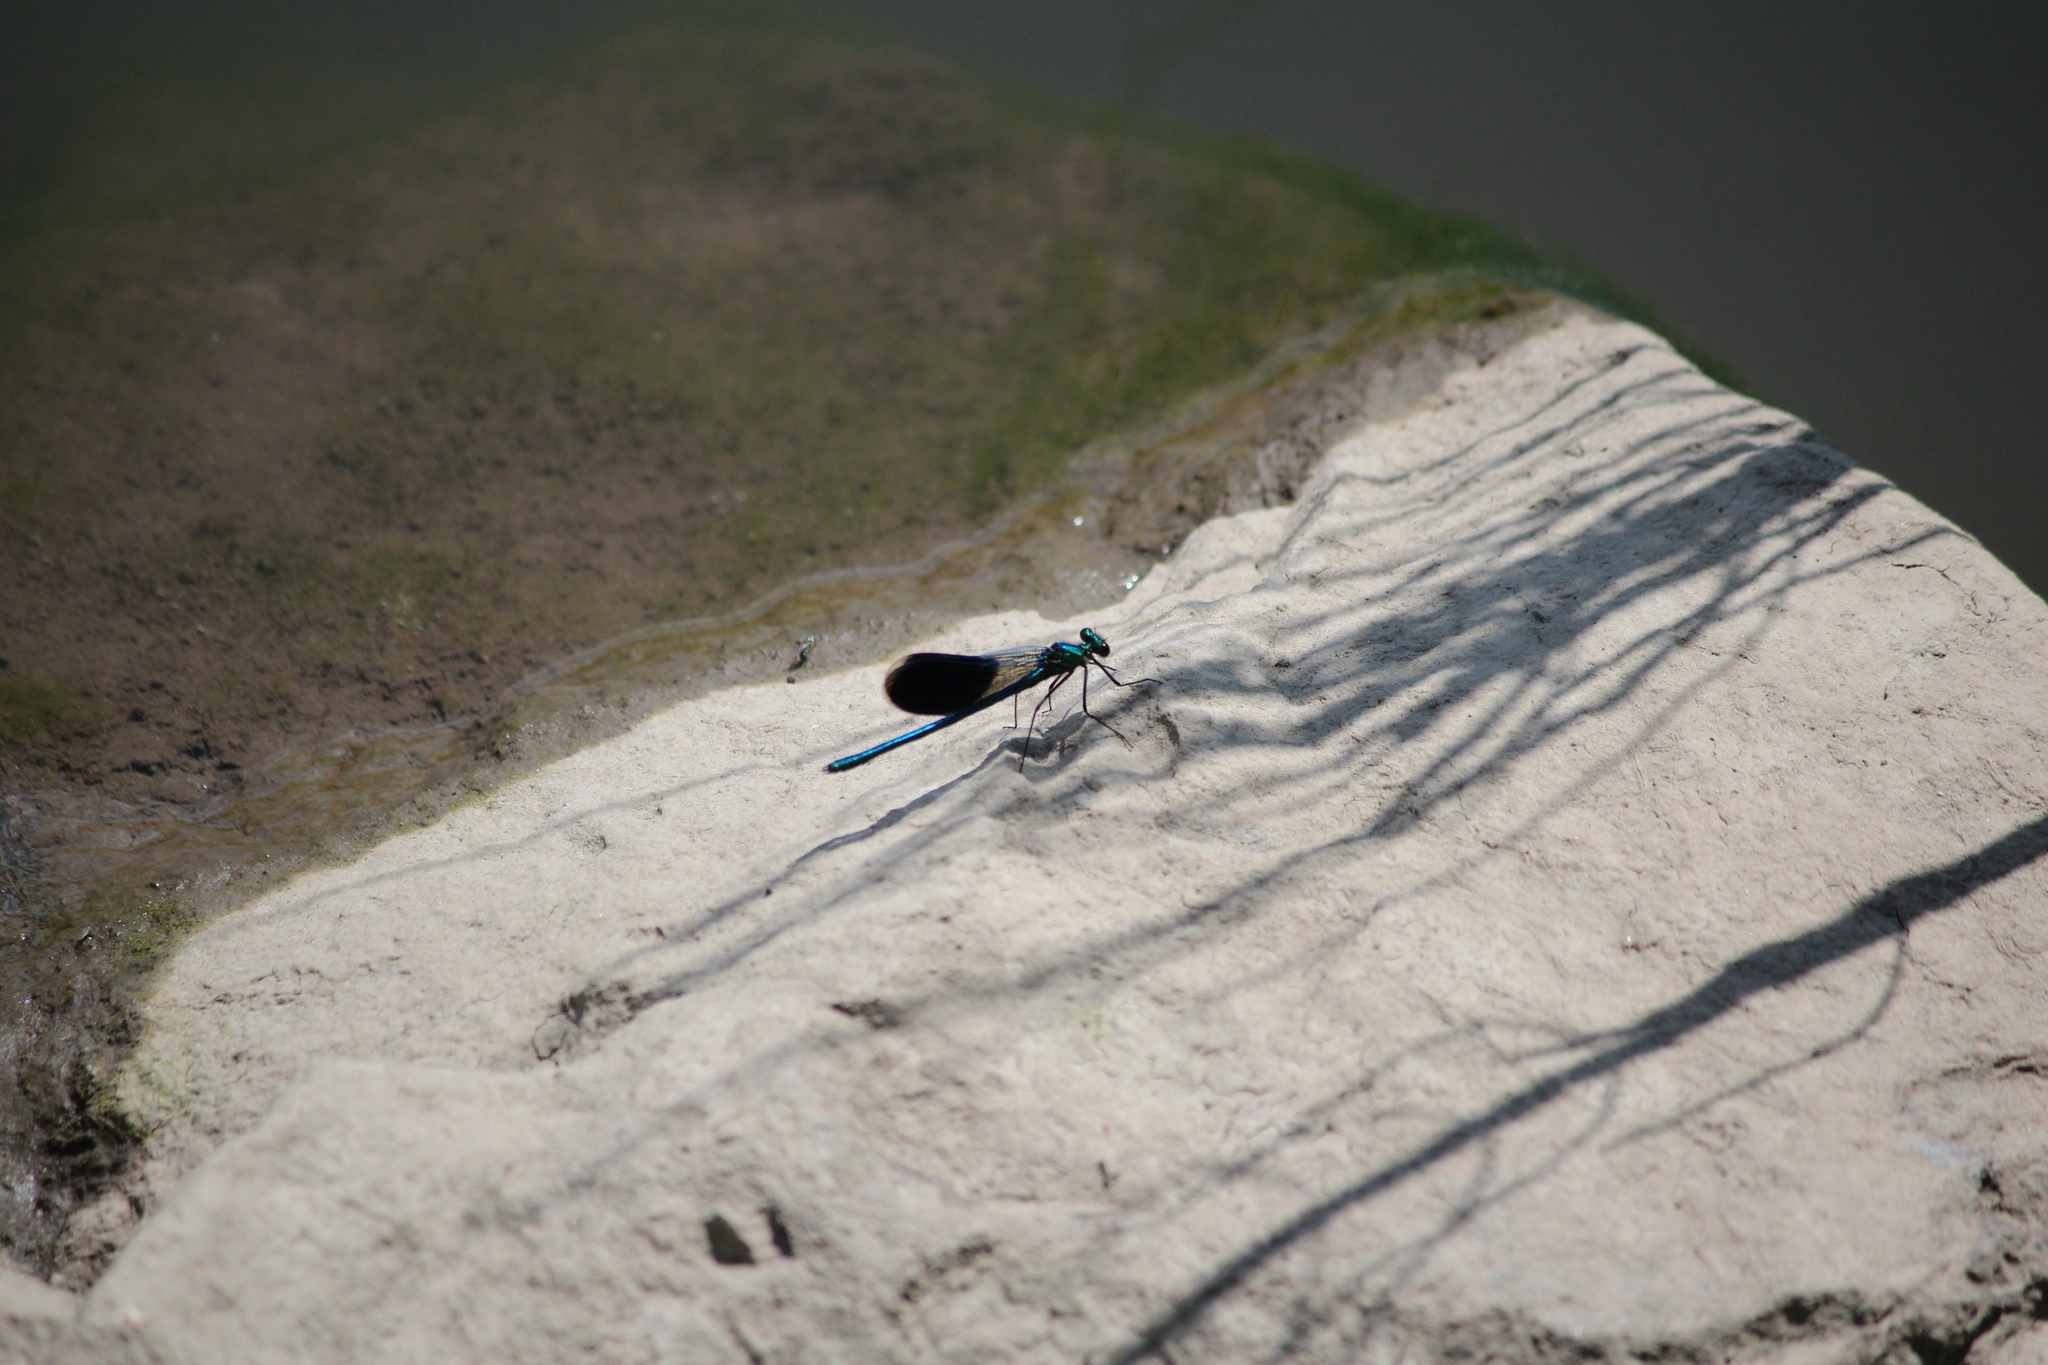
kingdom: Animalia
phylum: Arthropoda
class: Insecta
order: Odonata
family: Calopterygidae
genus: Calopteryx
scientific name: Calopteryx splendens
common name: Banded demoiselle
